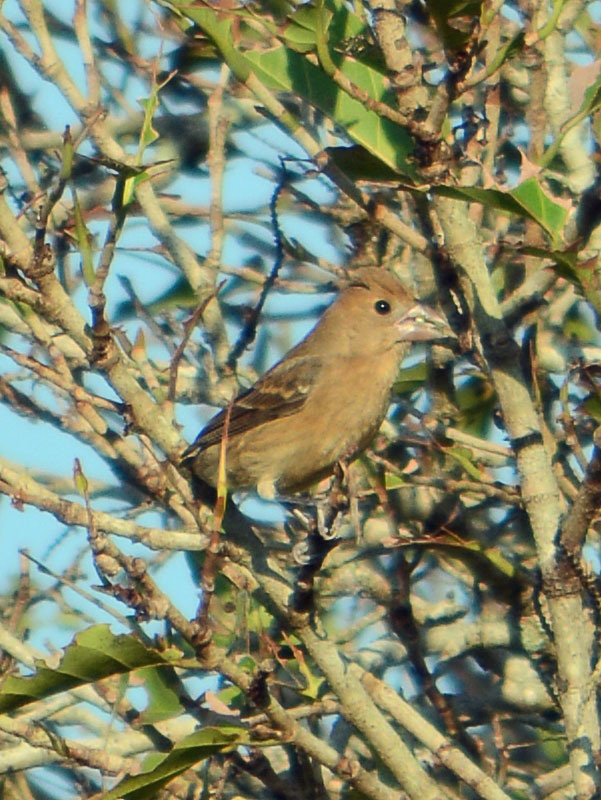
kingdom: Animalia
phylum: Chordata
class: Aves
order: Passeriformes
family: Cardinalidae
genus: Passerina
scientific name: Passerina caerulea
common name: Blue grosbeak
